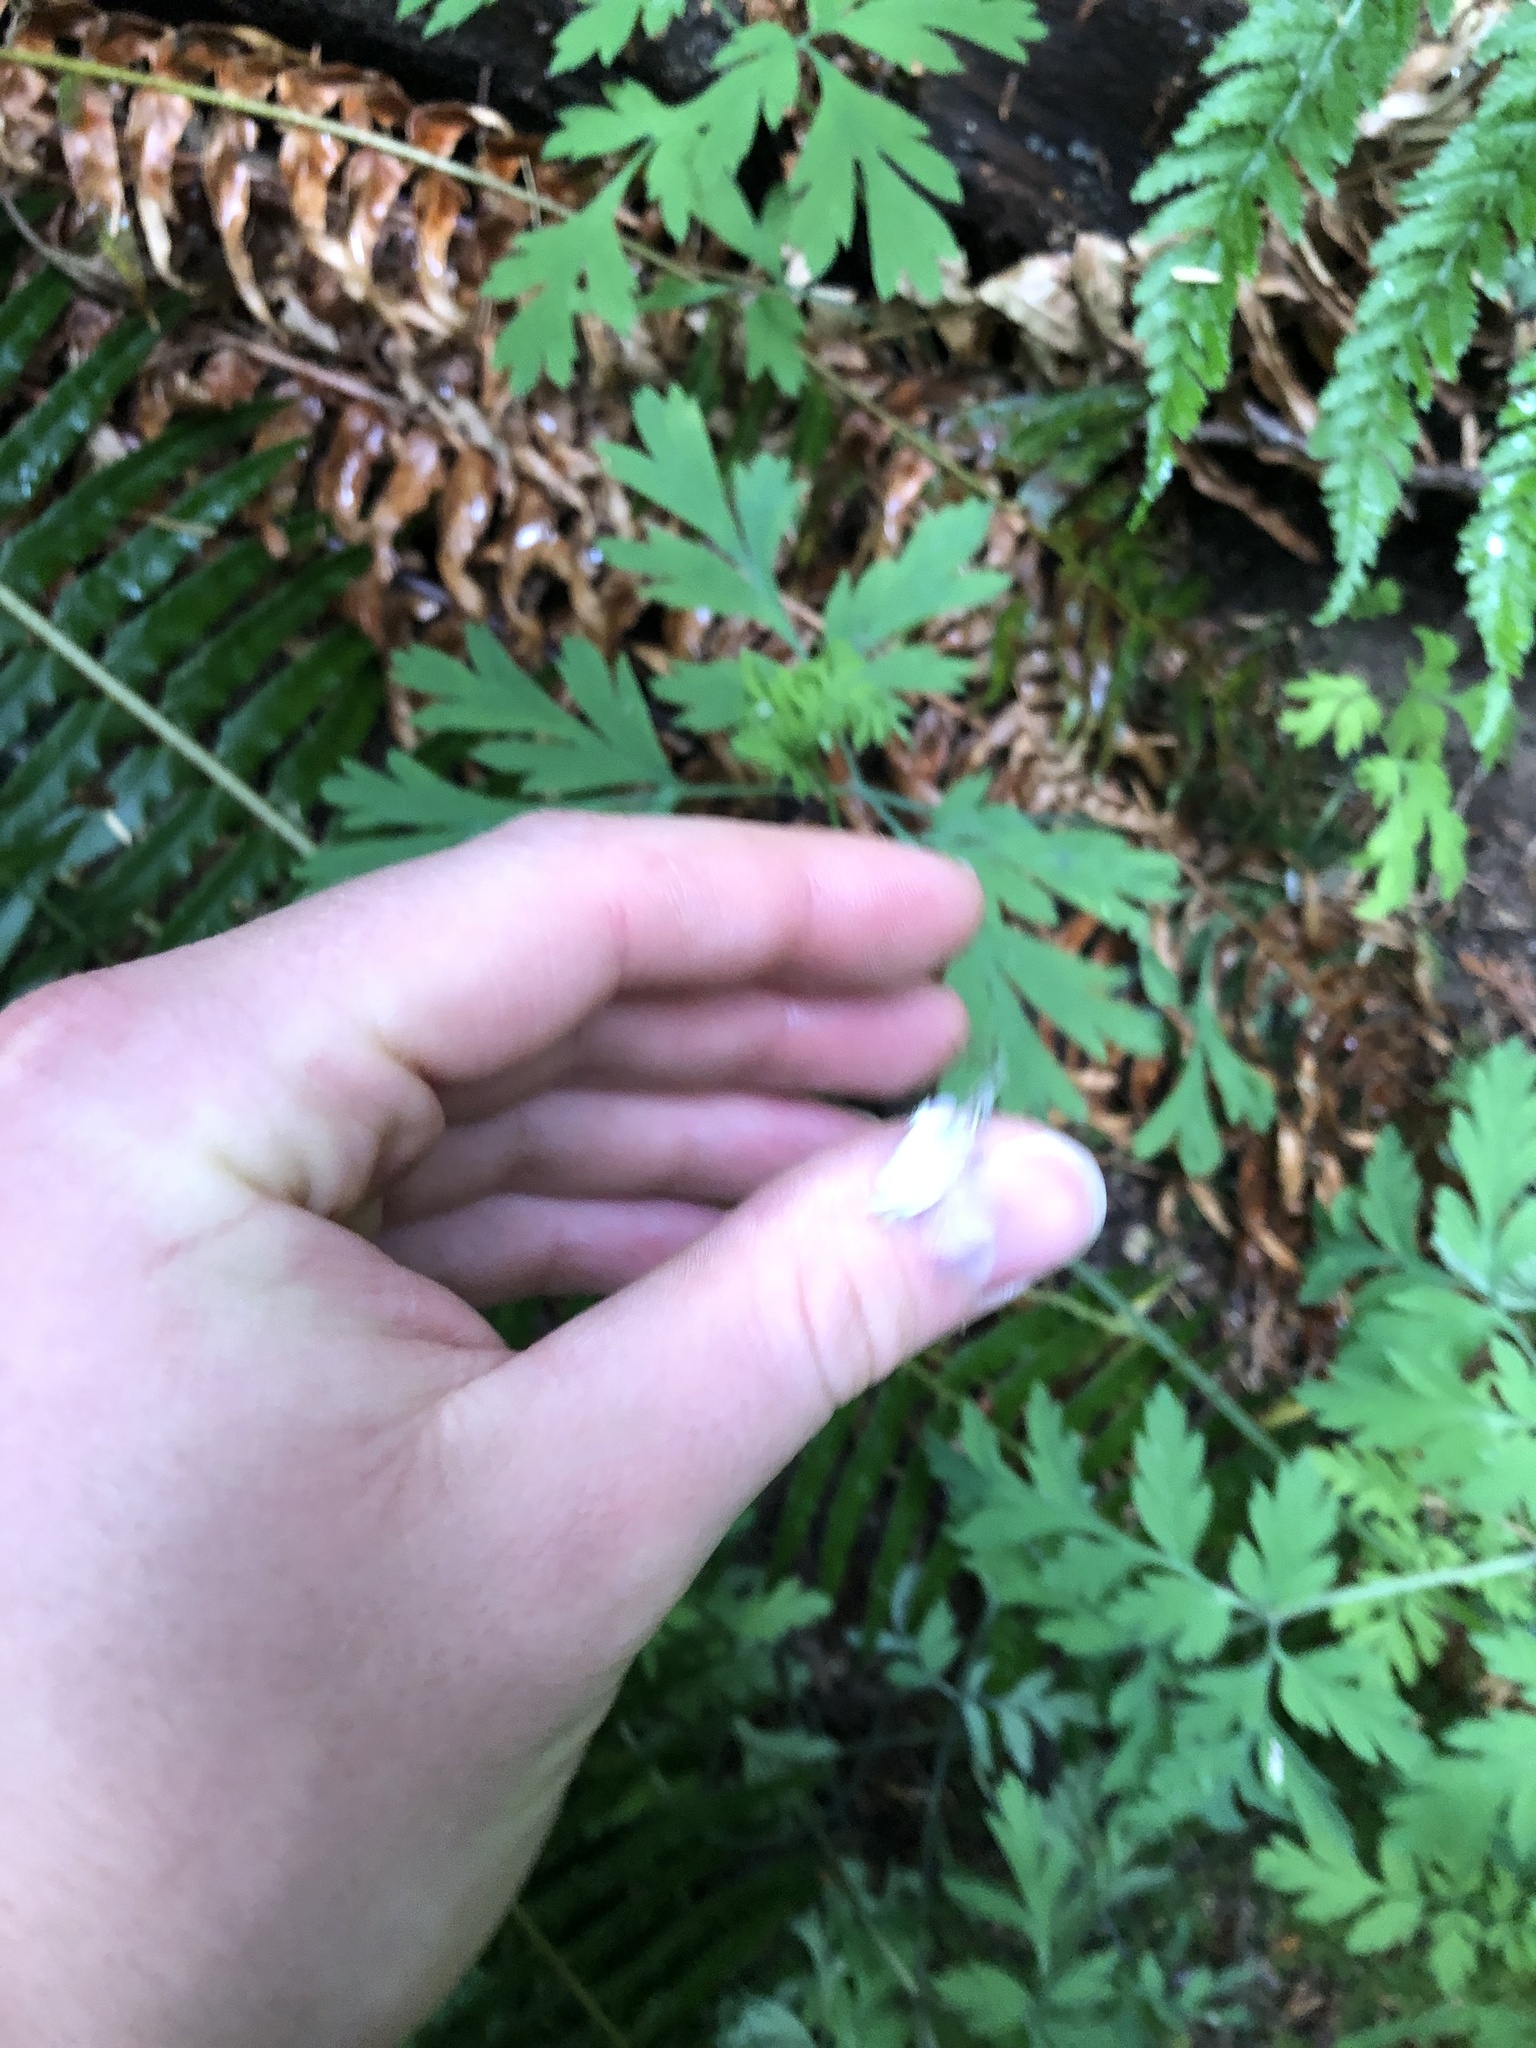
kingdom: Plantae
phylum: Tracheophyta
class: Magnoliopsida
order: Ranunculales
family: Papaveraceae
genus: Dicentra
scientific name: Dicentra formosa
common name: Bleeding-heart
